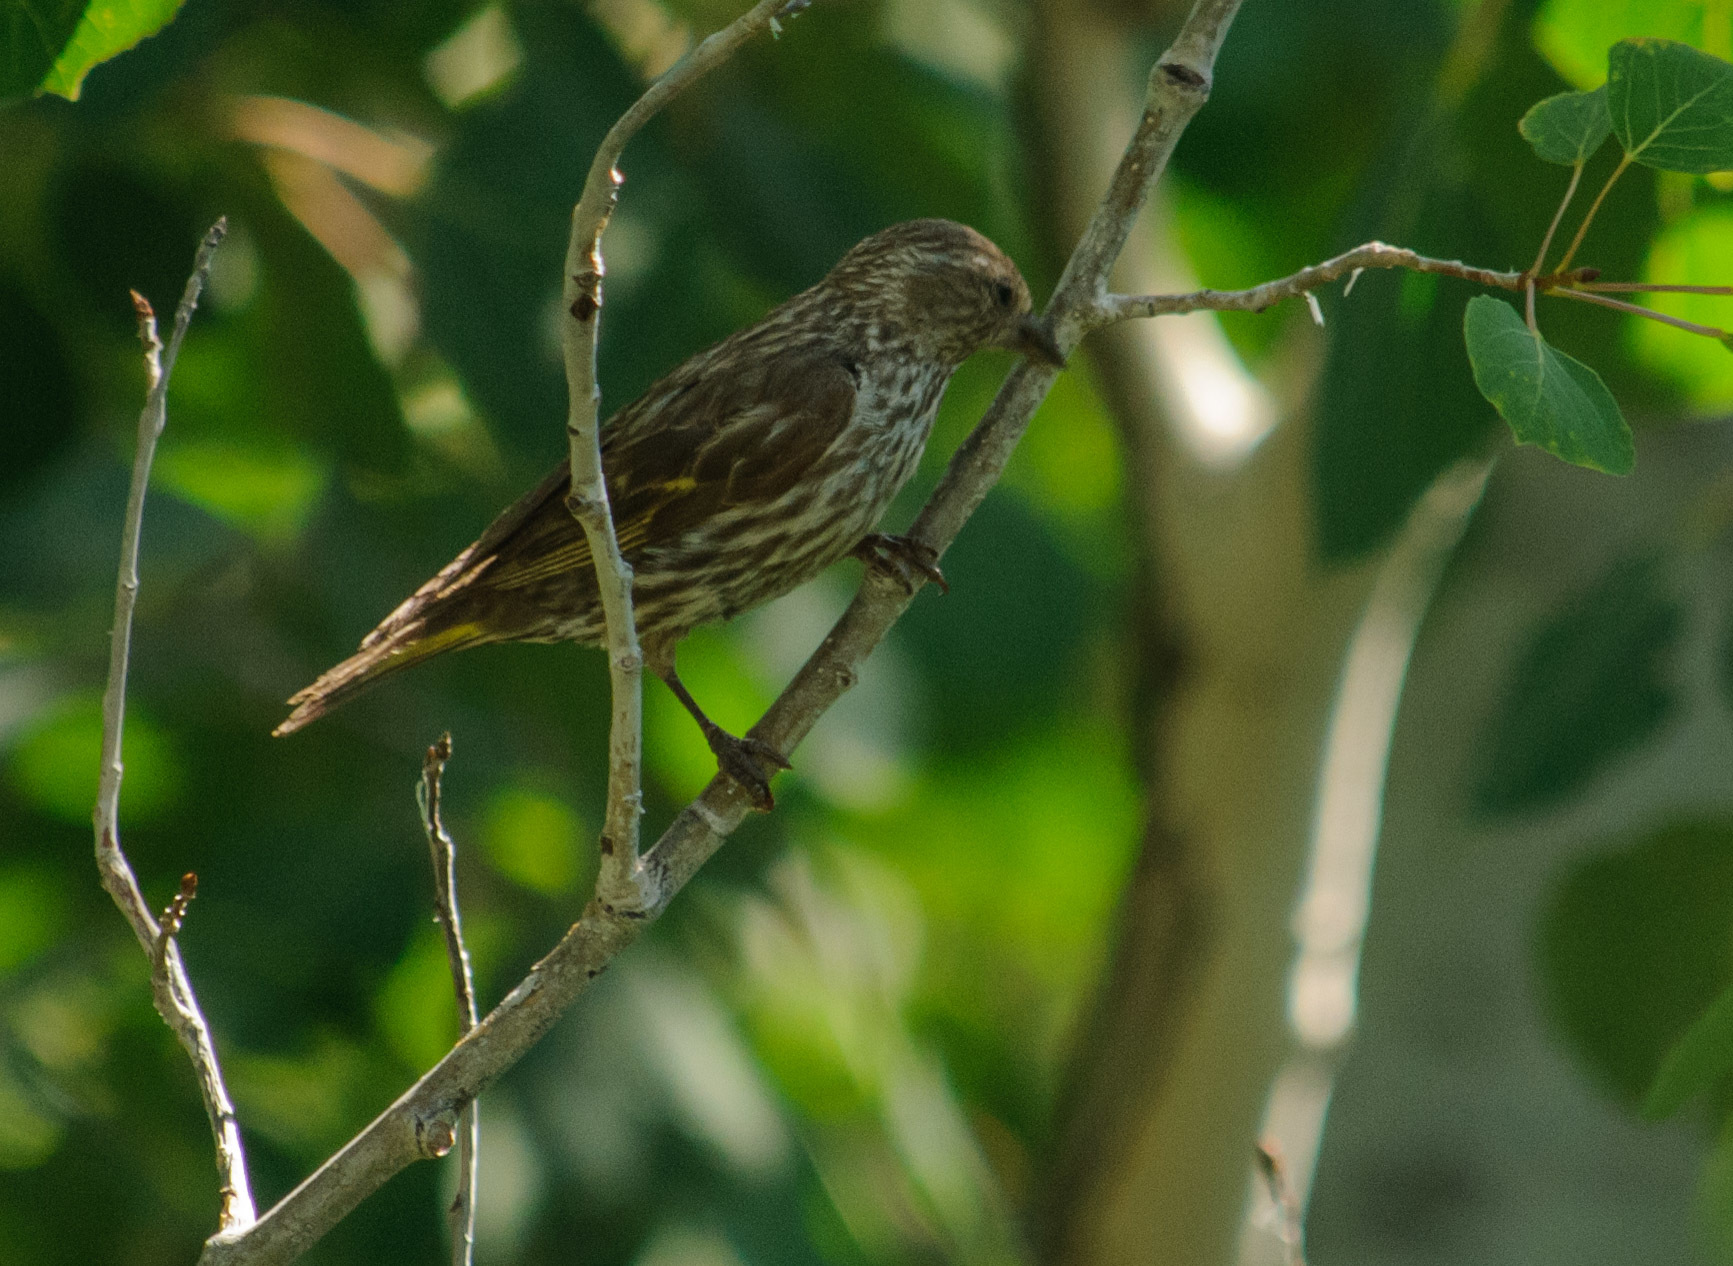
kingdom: Animalia
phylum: Chordata
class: Aves
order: Passeriformes
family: Fringillidae
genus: Spinus
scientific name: Spinus pinus
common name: Pine siskin
